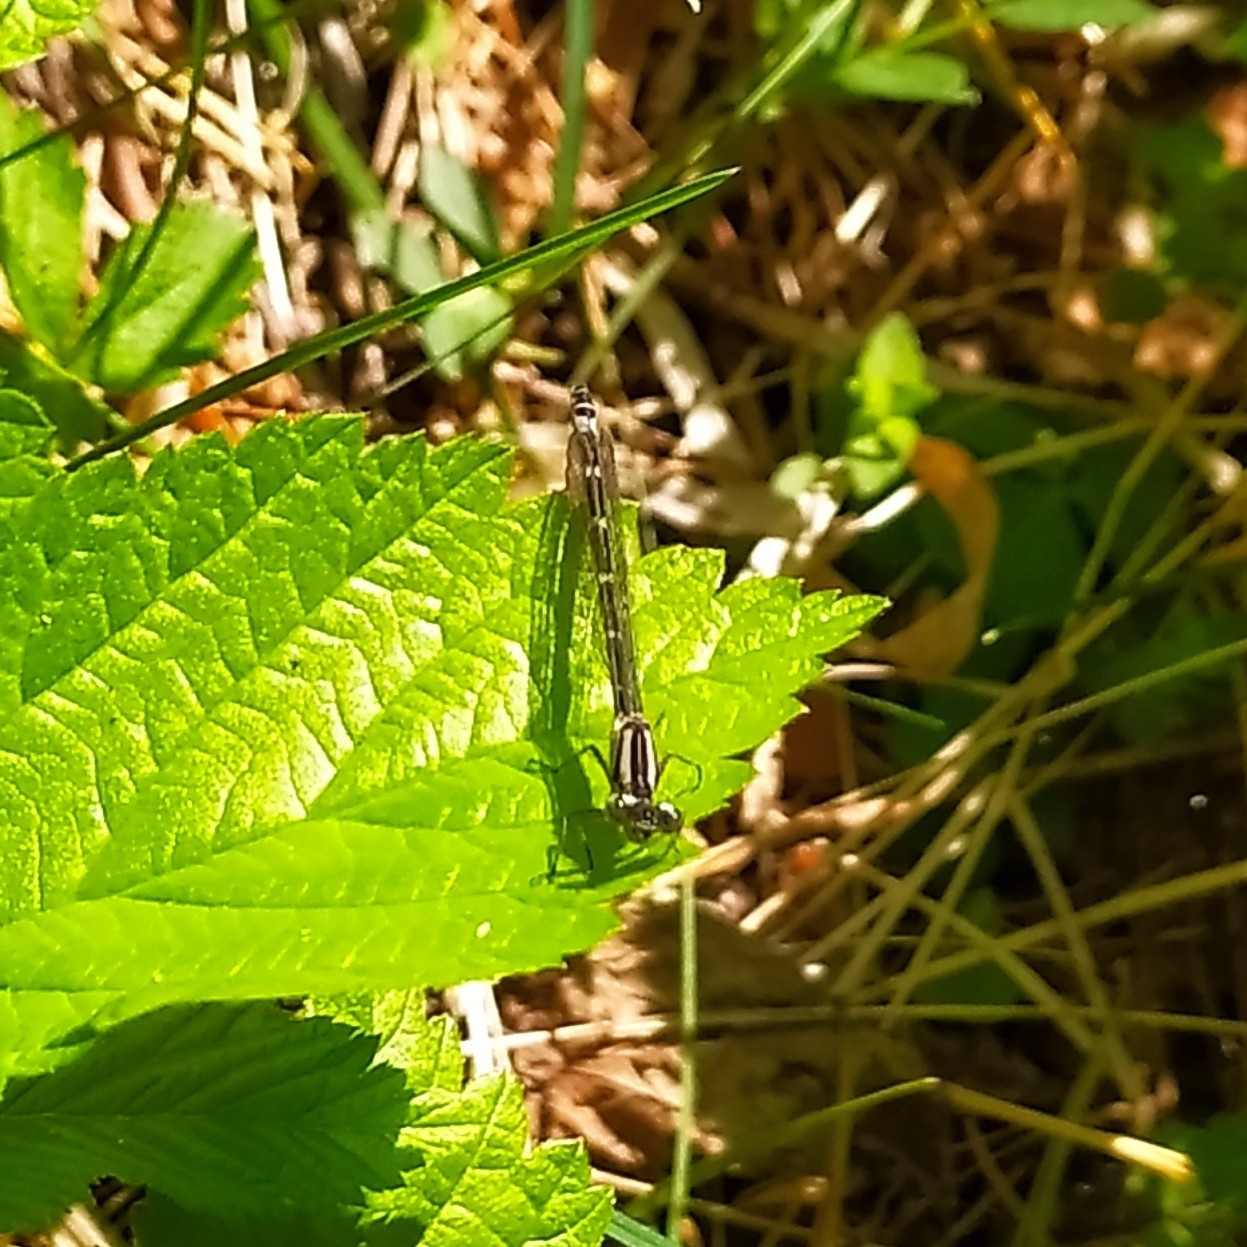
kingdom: Animalia
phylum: Arthropoda
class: Insecta
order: Odonata
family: Coenagrionidae
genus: Enallagma
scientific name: Enallagma cyathigerum
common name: Common blue damselfly
